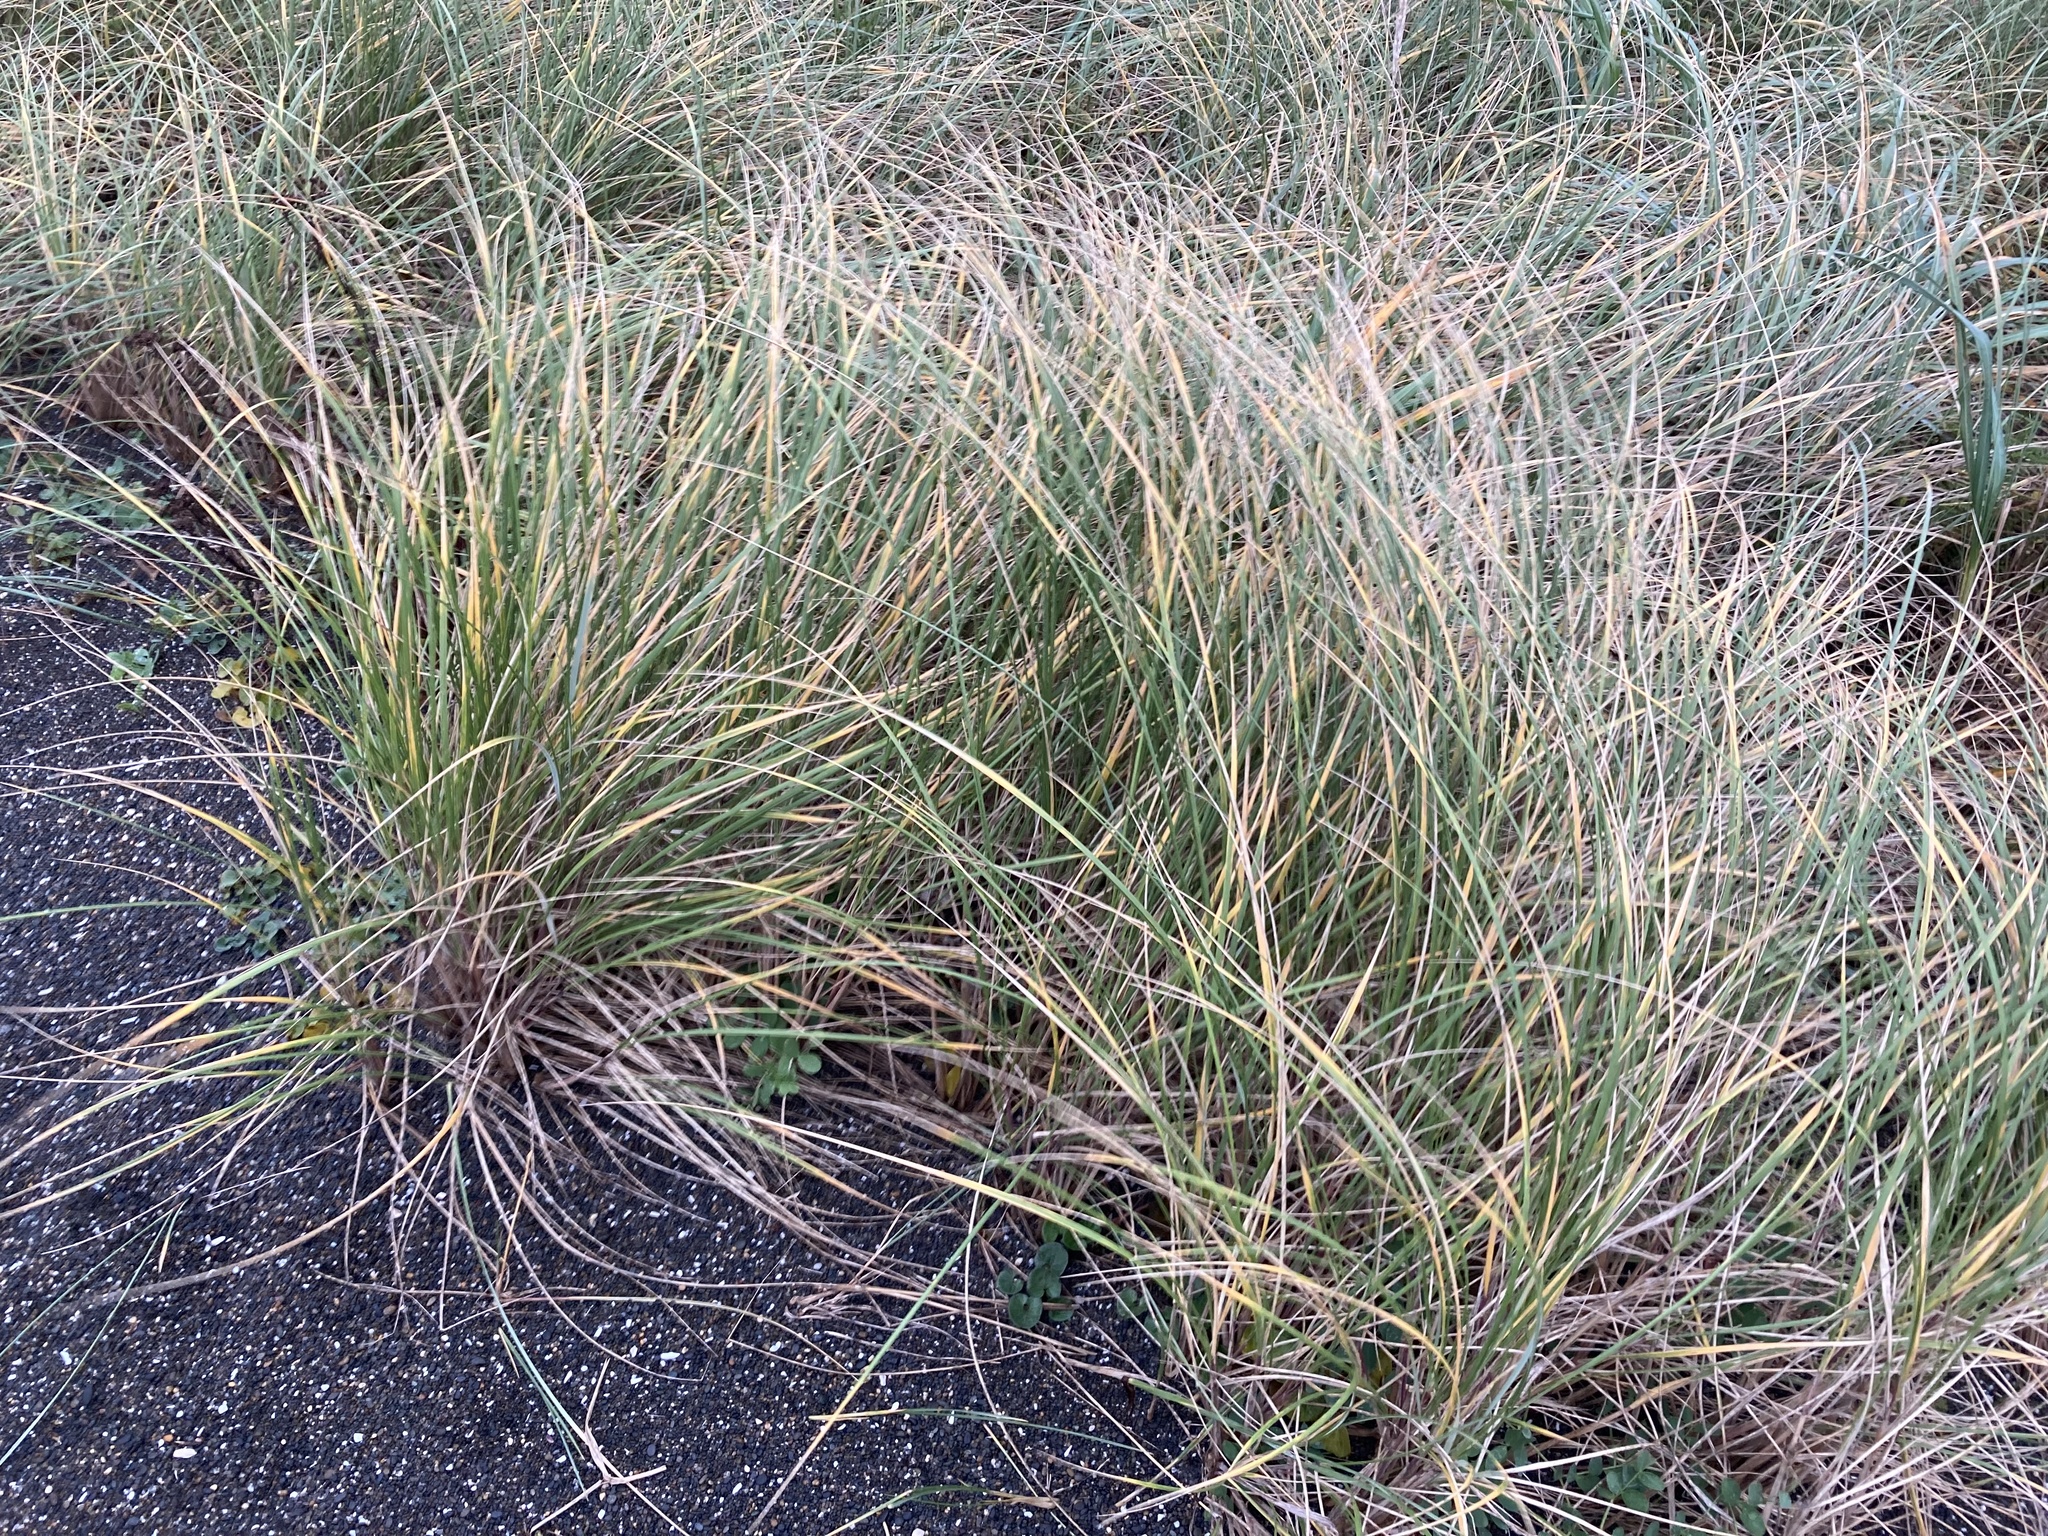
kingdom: Plantae
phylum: Tracheophyta
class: Liliopsida
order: Poales
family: Poaceae
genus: Calamagrostis
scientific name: Calamagrostis arenaria
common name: European beachgrass
